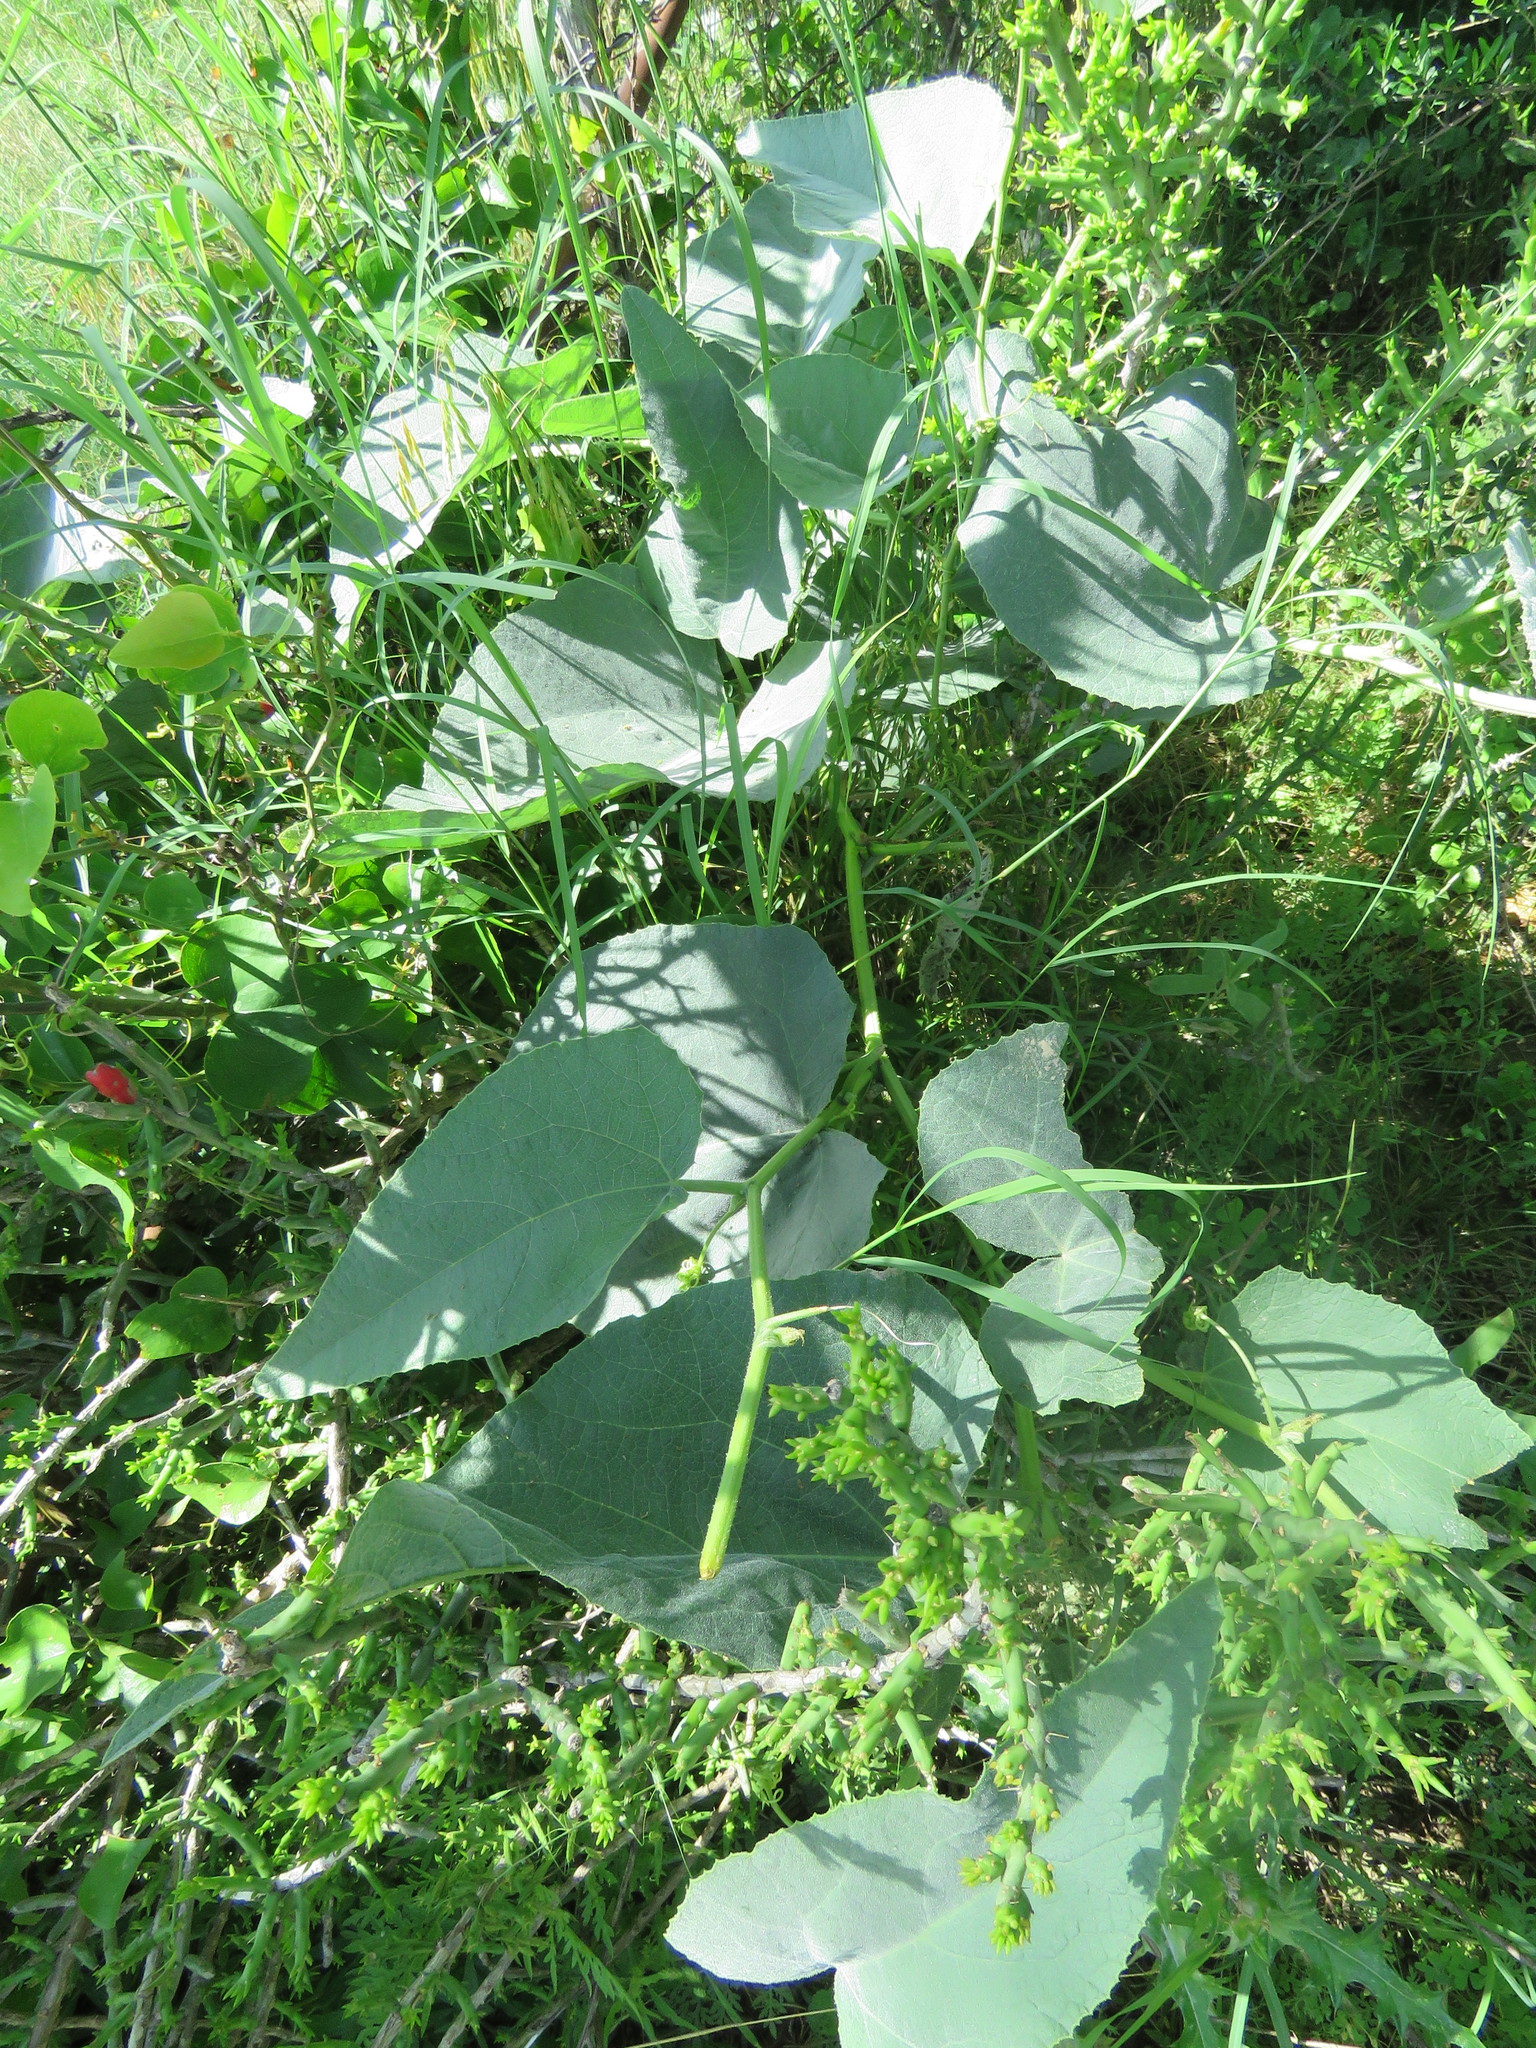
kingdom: Plantae
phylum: Tracheophyta
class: Magnoliopsida
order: Cucurbitales
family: Cucurbitaceae
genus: Cucurbita
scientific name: Cucurbita foetidissima
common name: Buffalo gourd
